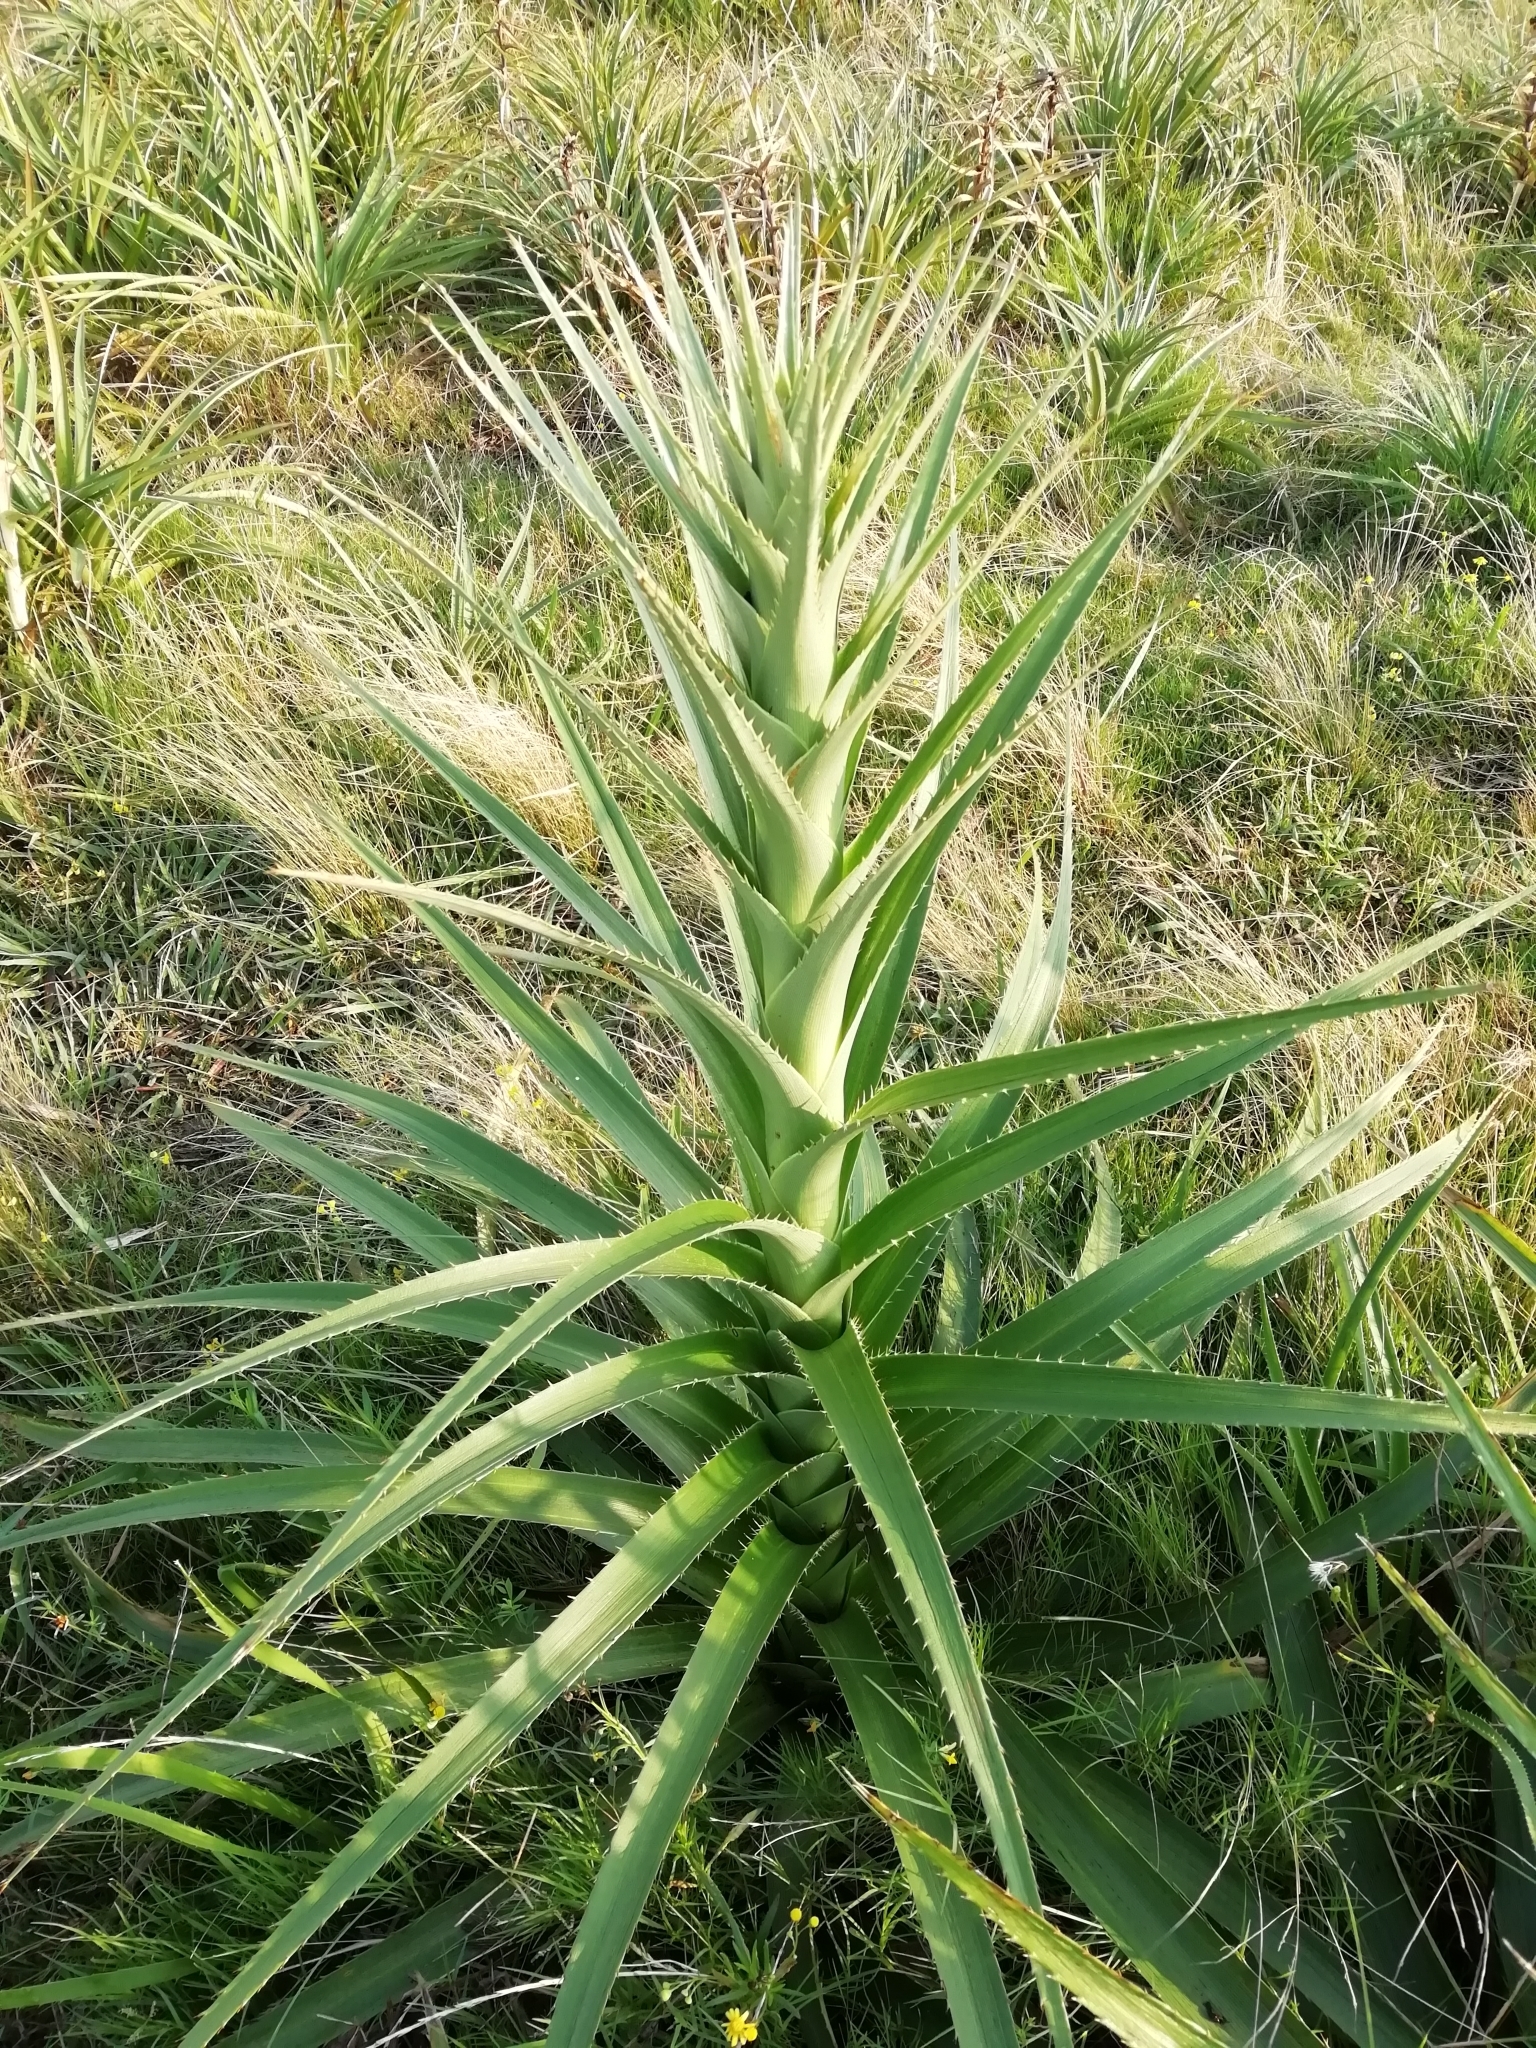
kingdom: Plantae
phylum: Tracheophyta
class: Magnoliopsida
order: Apiales
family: Apiaceae
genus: Eryngium
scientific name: Eryngium eburneum
